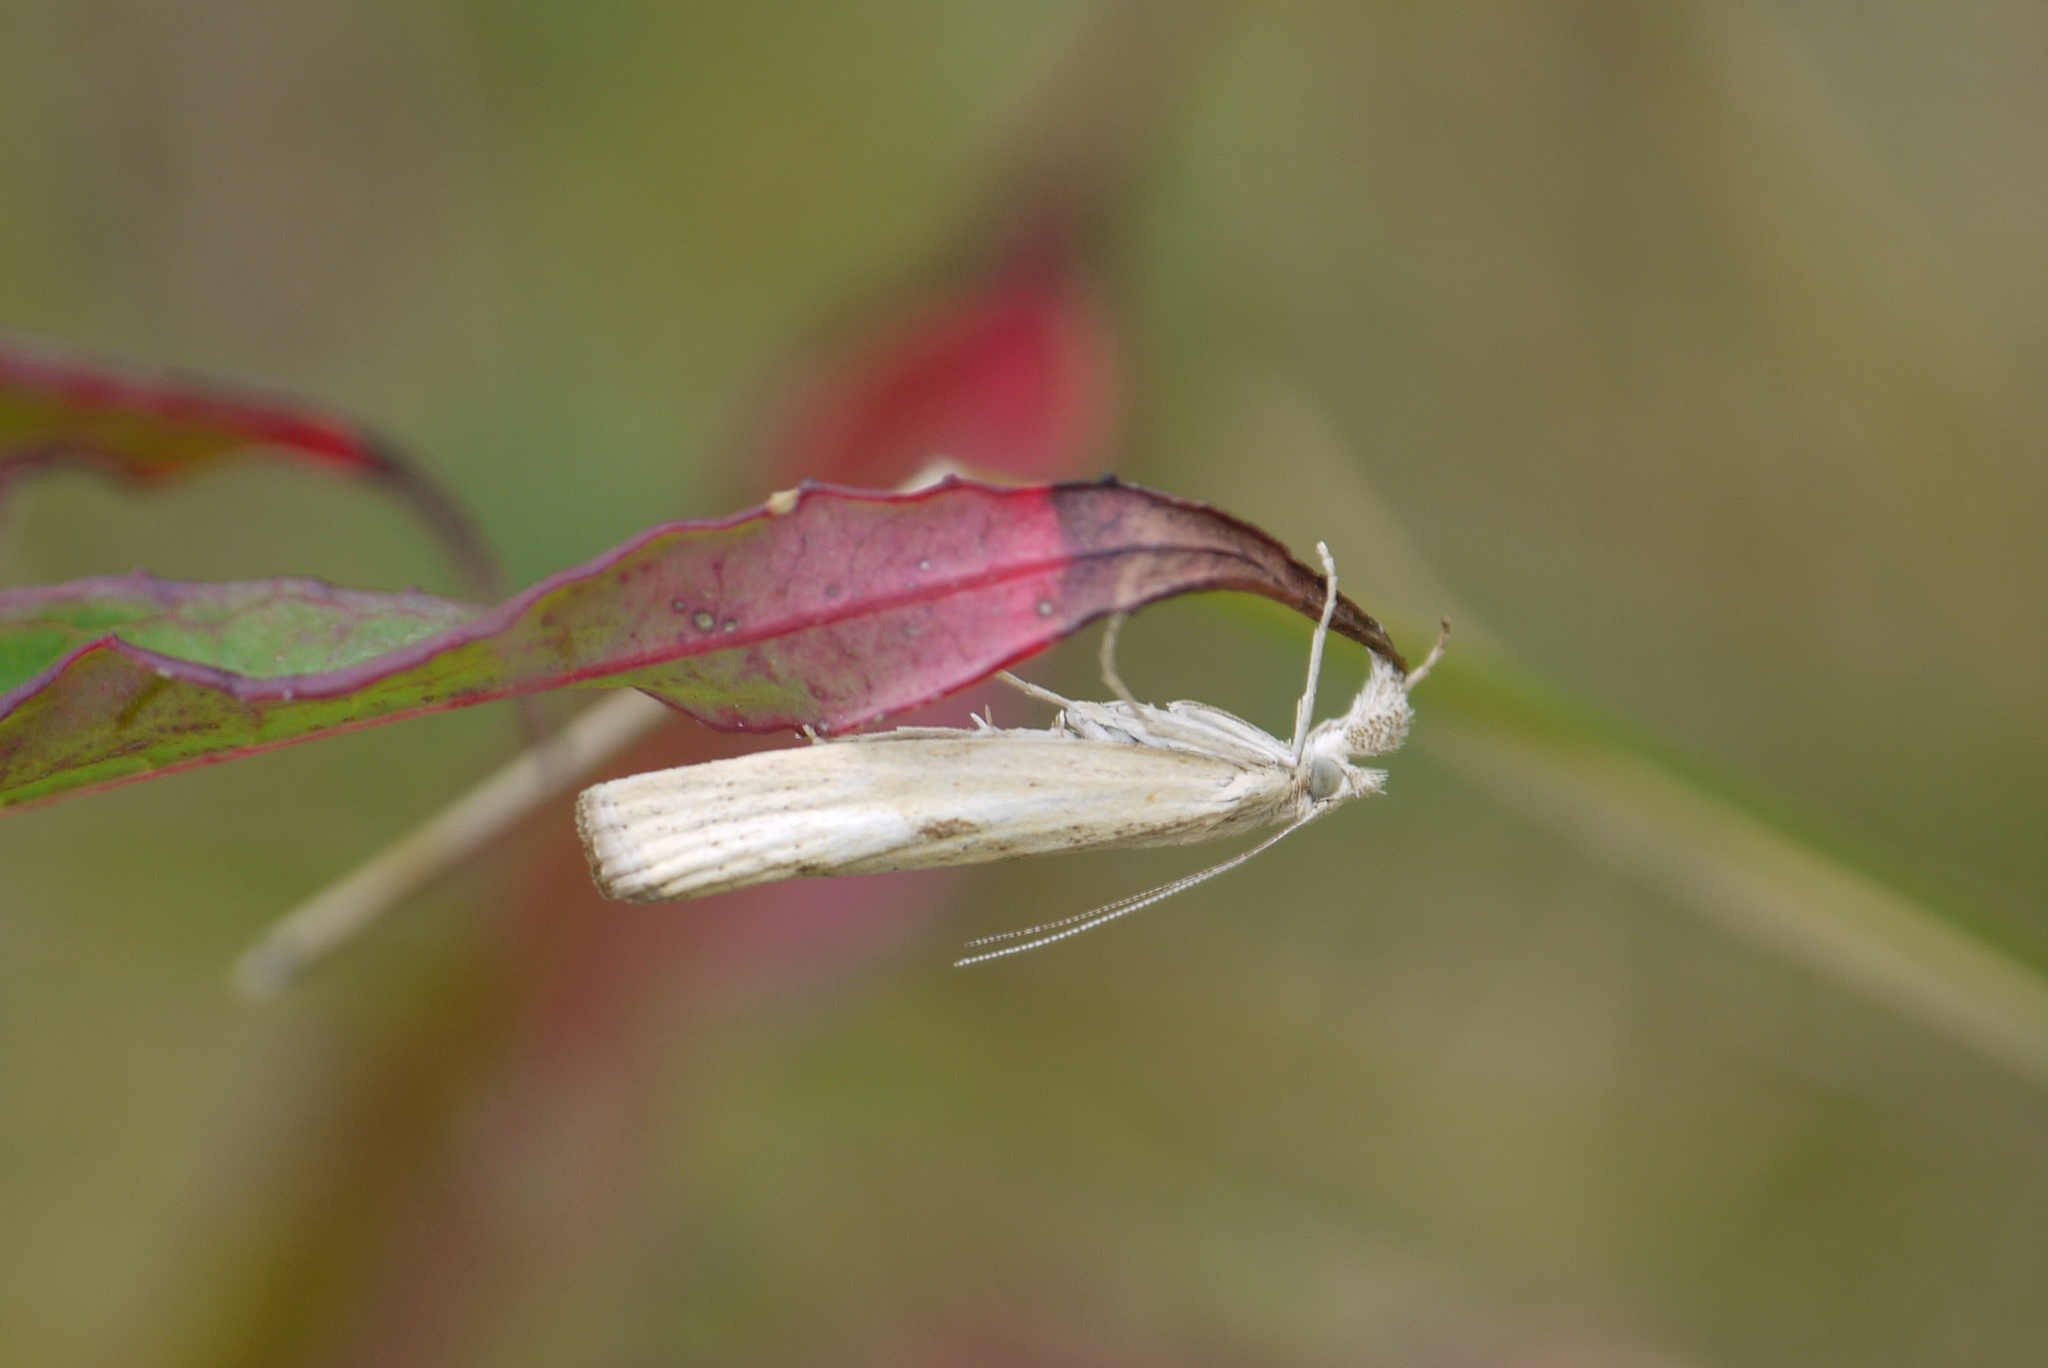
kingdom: Animalia
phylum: Arthropoda
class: Insecta
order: Lepidoptera
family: Crambidae
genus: Agriphila
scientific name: Agriphila inquinatella
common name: Barred grass-veneer
